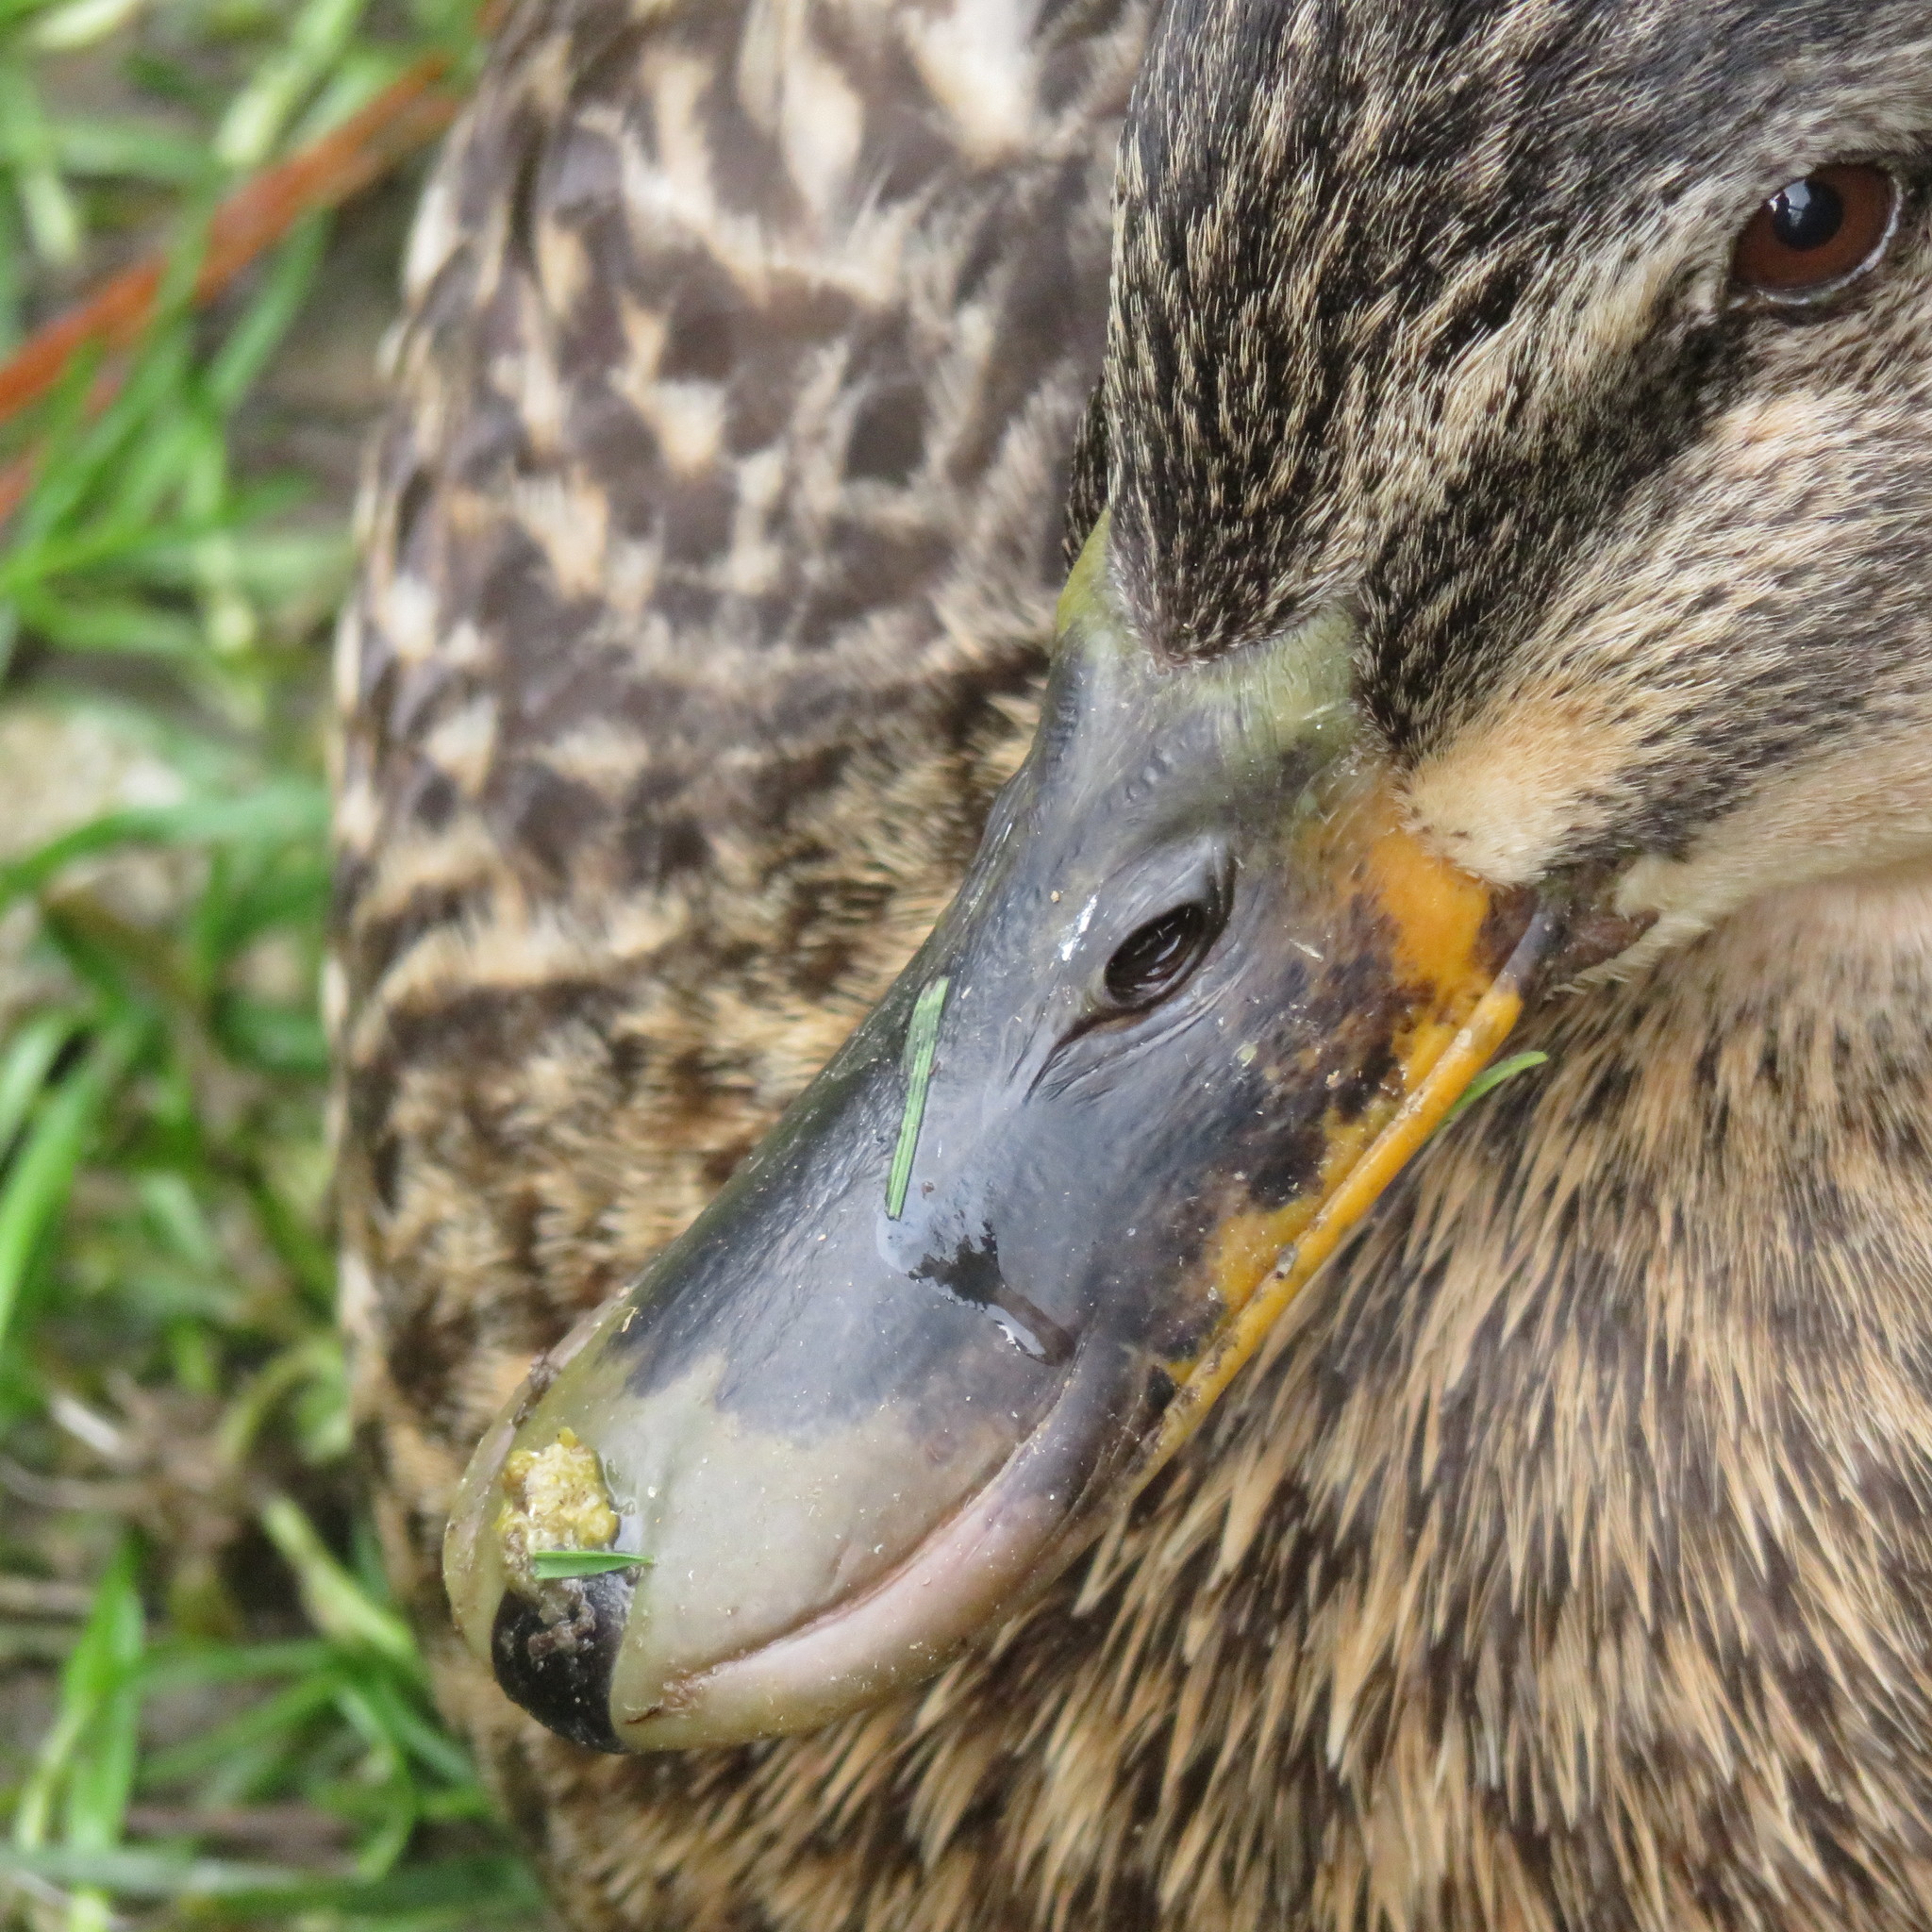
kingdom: Animalia
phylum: Chordata
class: Aves
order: Anseriformes
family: Anatidae
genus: Anas
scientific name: Anas
